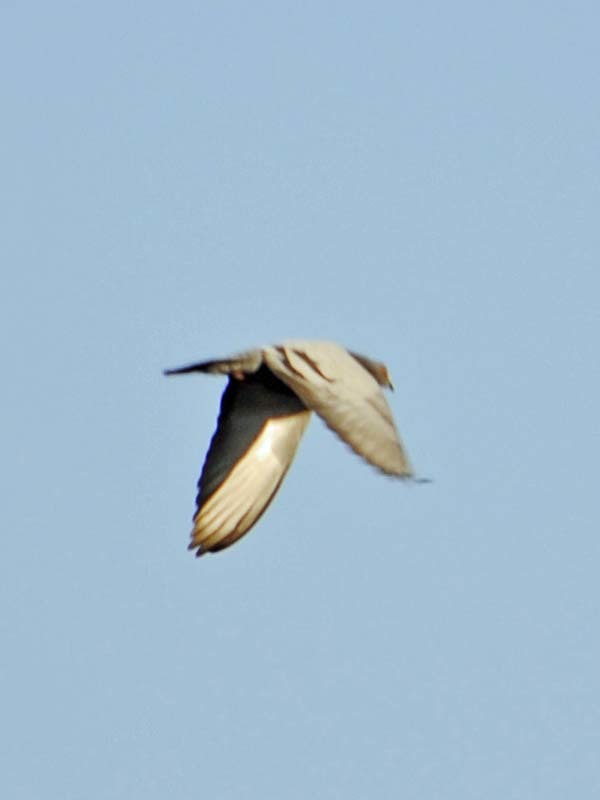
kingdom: Animalia
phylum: Chordata
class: Aves
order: Columbiformes
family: Columbidae
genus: Columba
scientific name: Columba livia
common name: Rock pigeon
